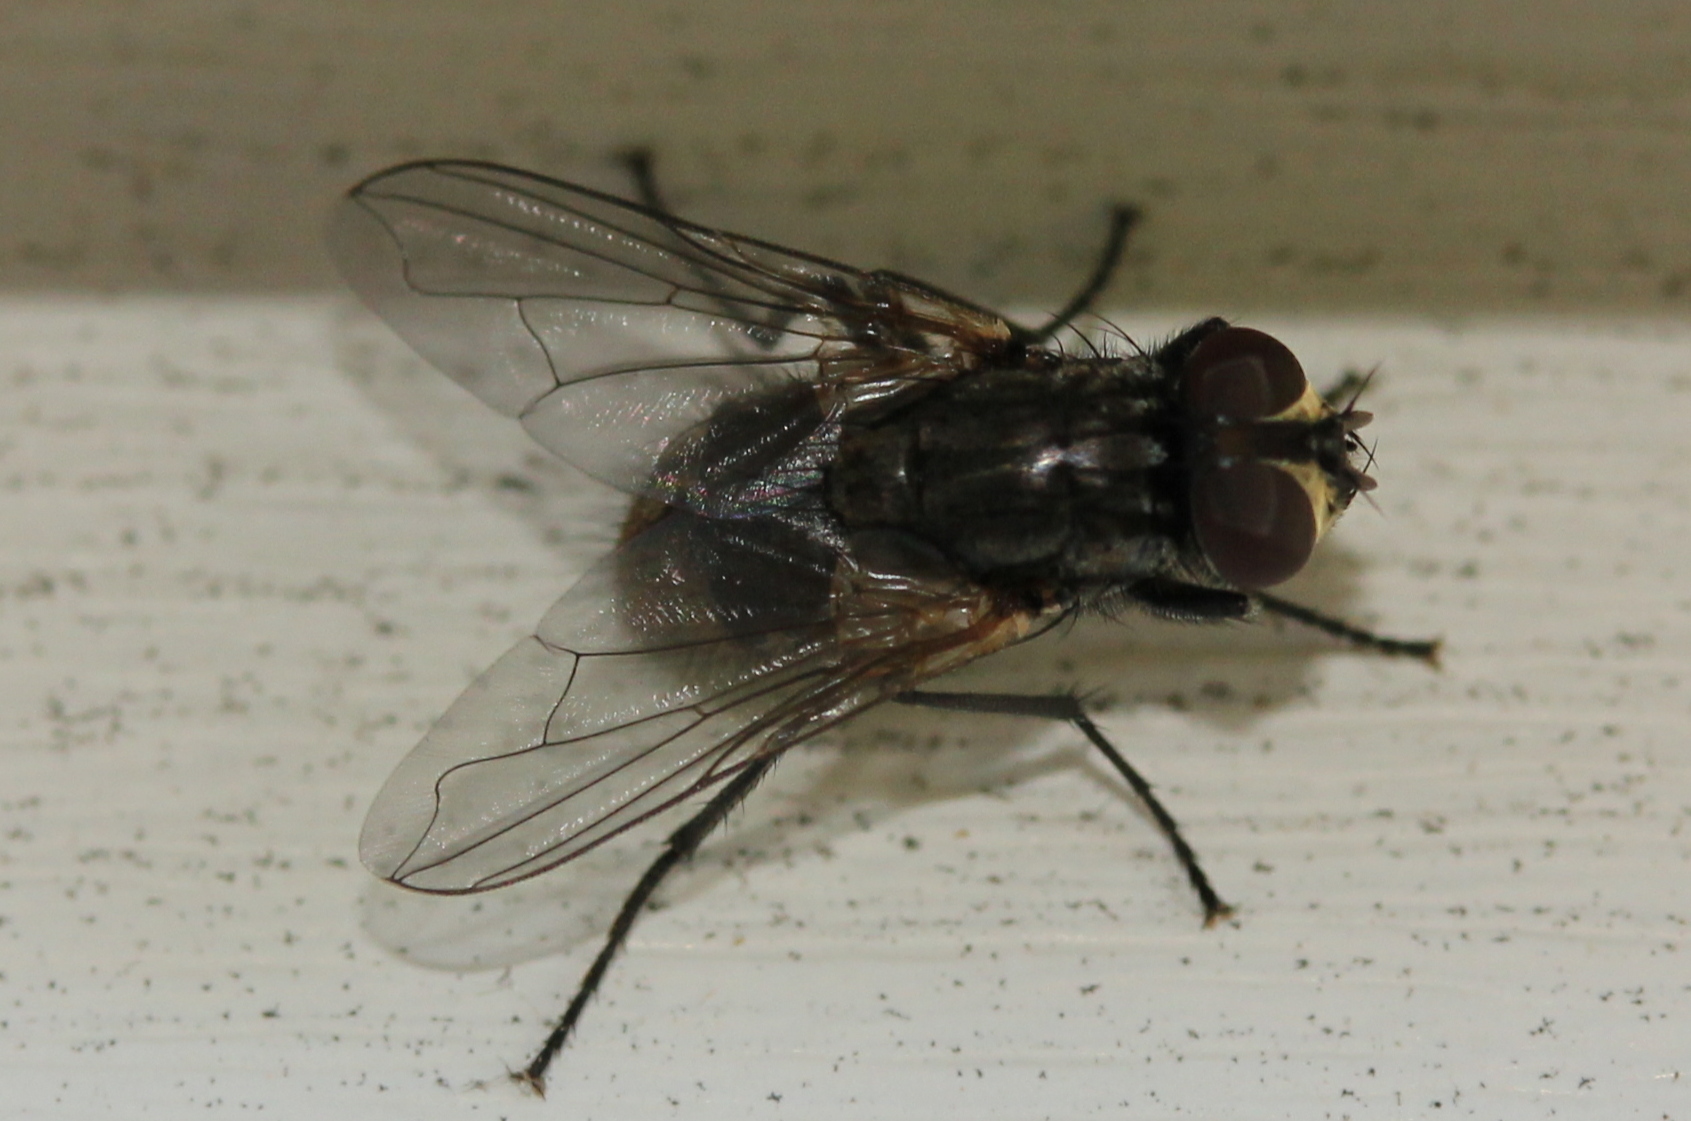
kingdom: Animalia
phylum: Arthropoda
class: Insecta
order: Diptera
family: Muscidae
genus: Musca
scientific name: Musca domestica
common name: House fly
